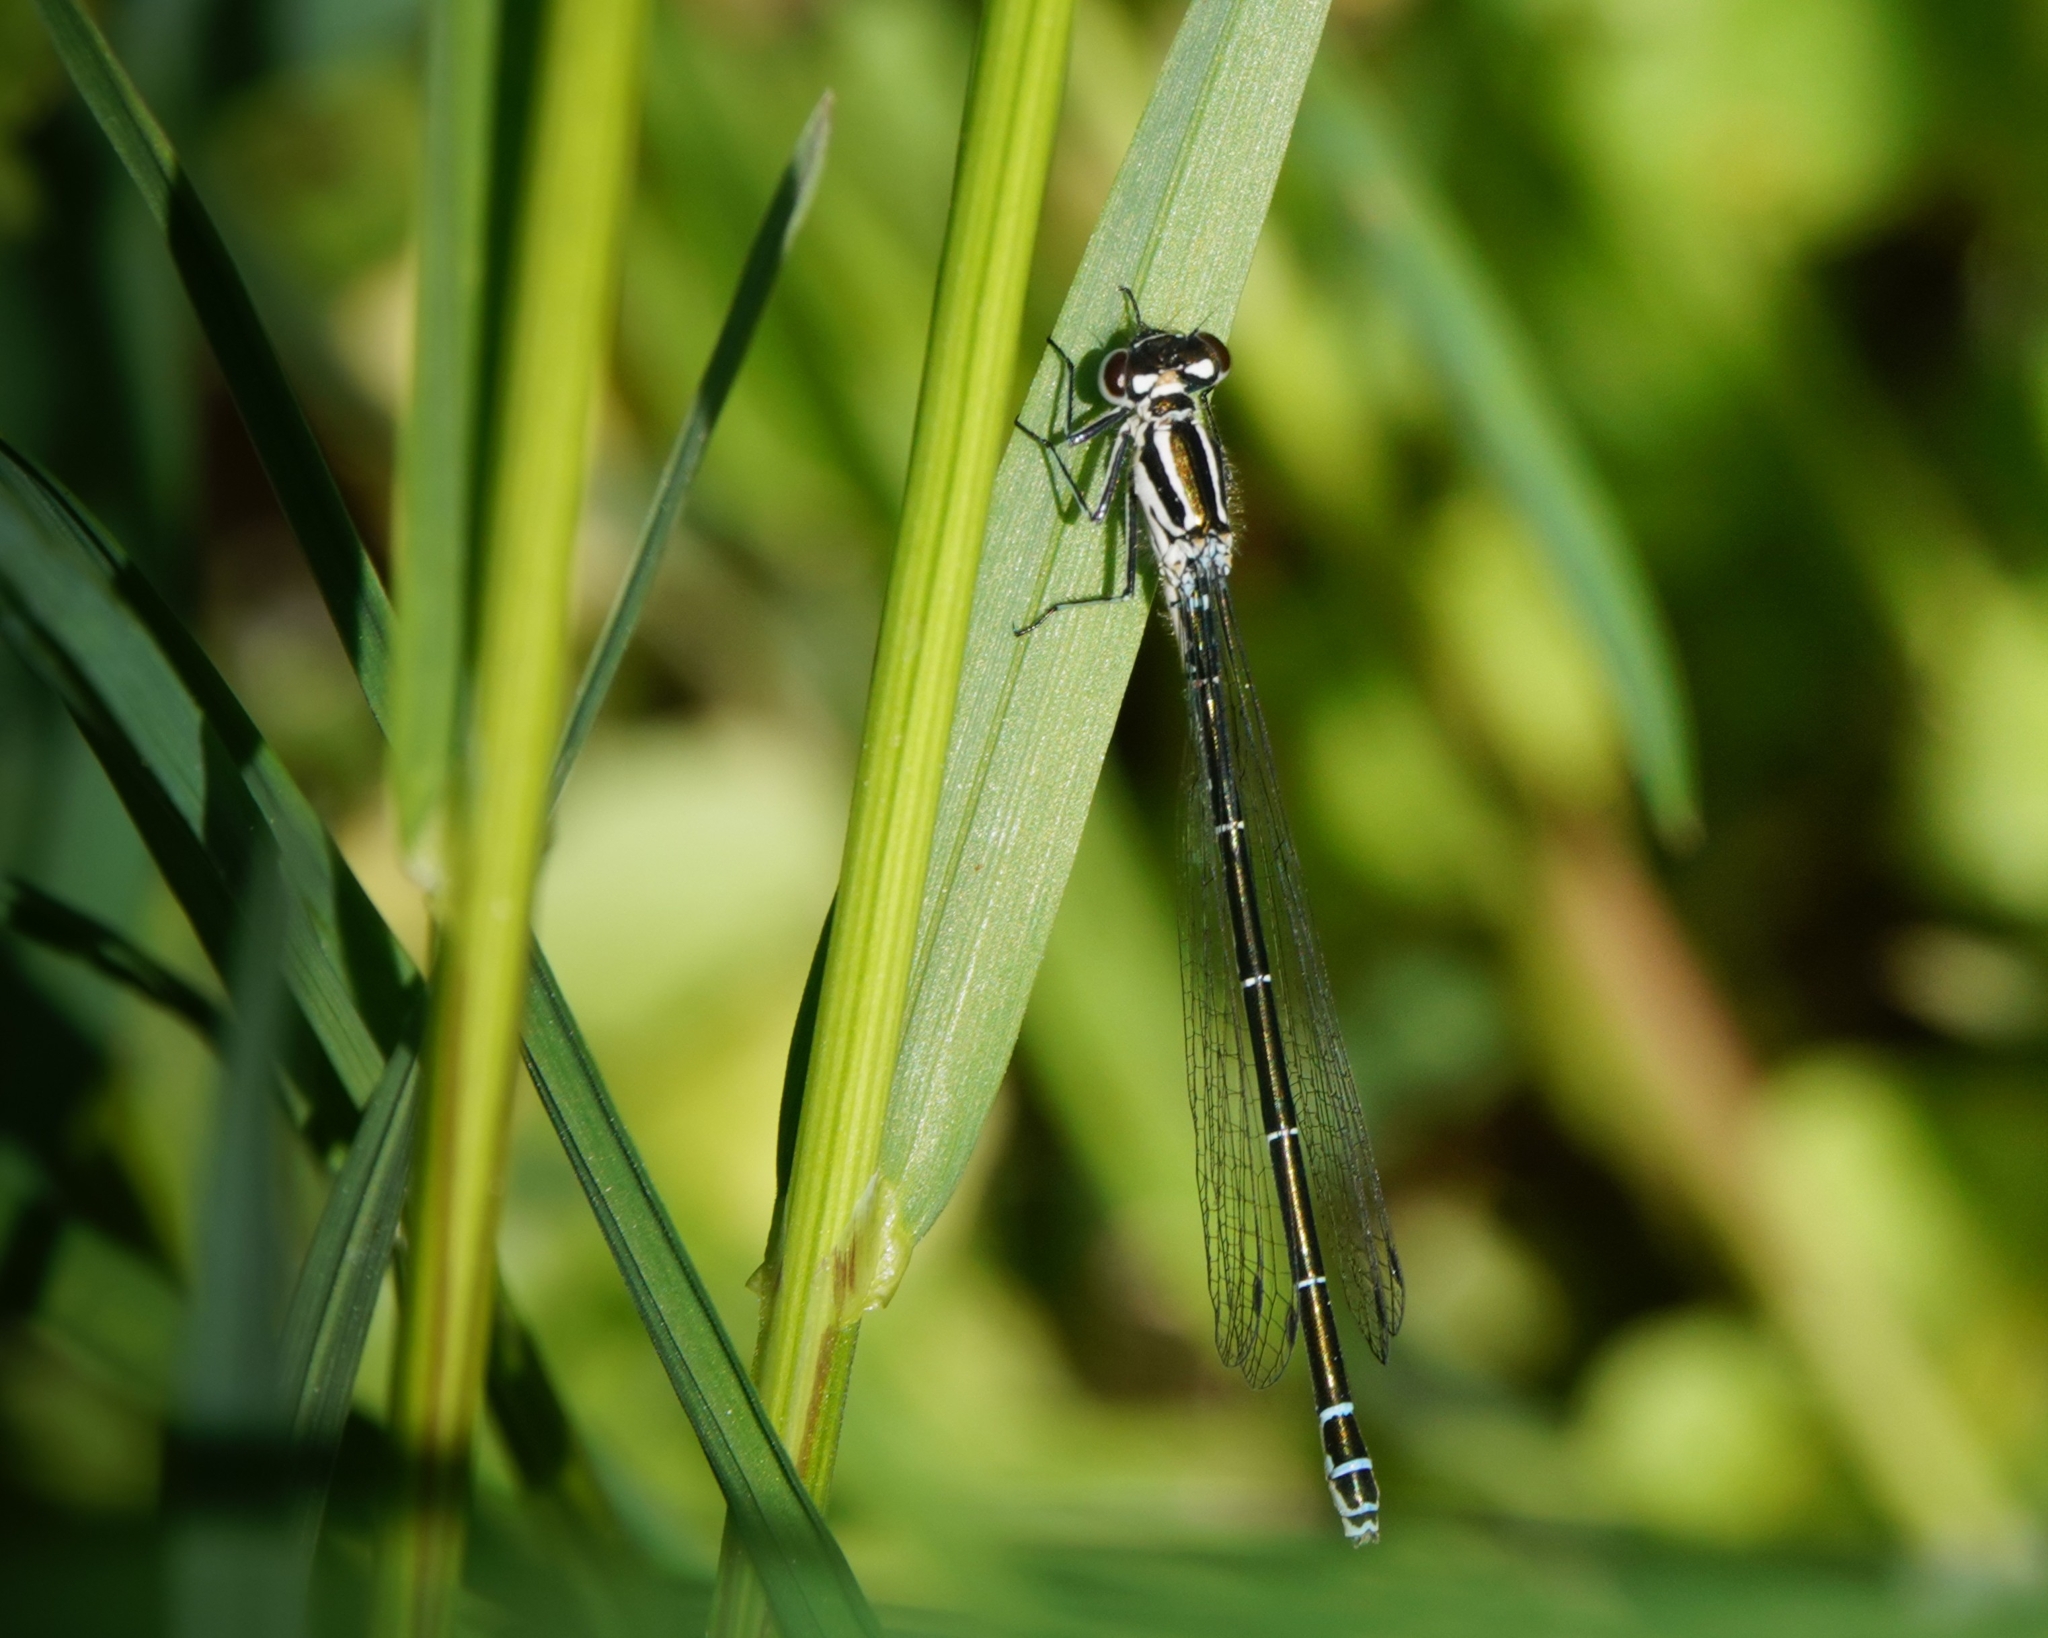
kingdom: Animalia
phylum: Arthropoda
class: Insecta
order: Odonata
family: Coenagrionidae
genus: Coenagrion
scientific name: Coenagrion puella
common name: Azure damselfly
